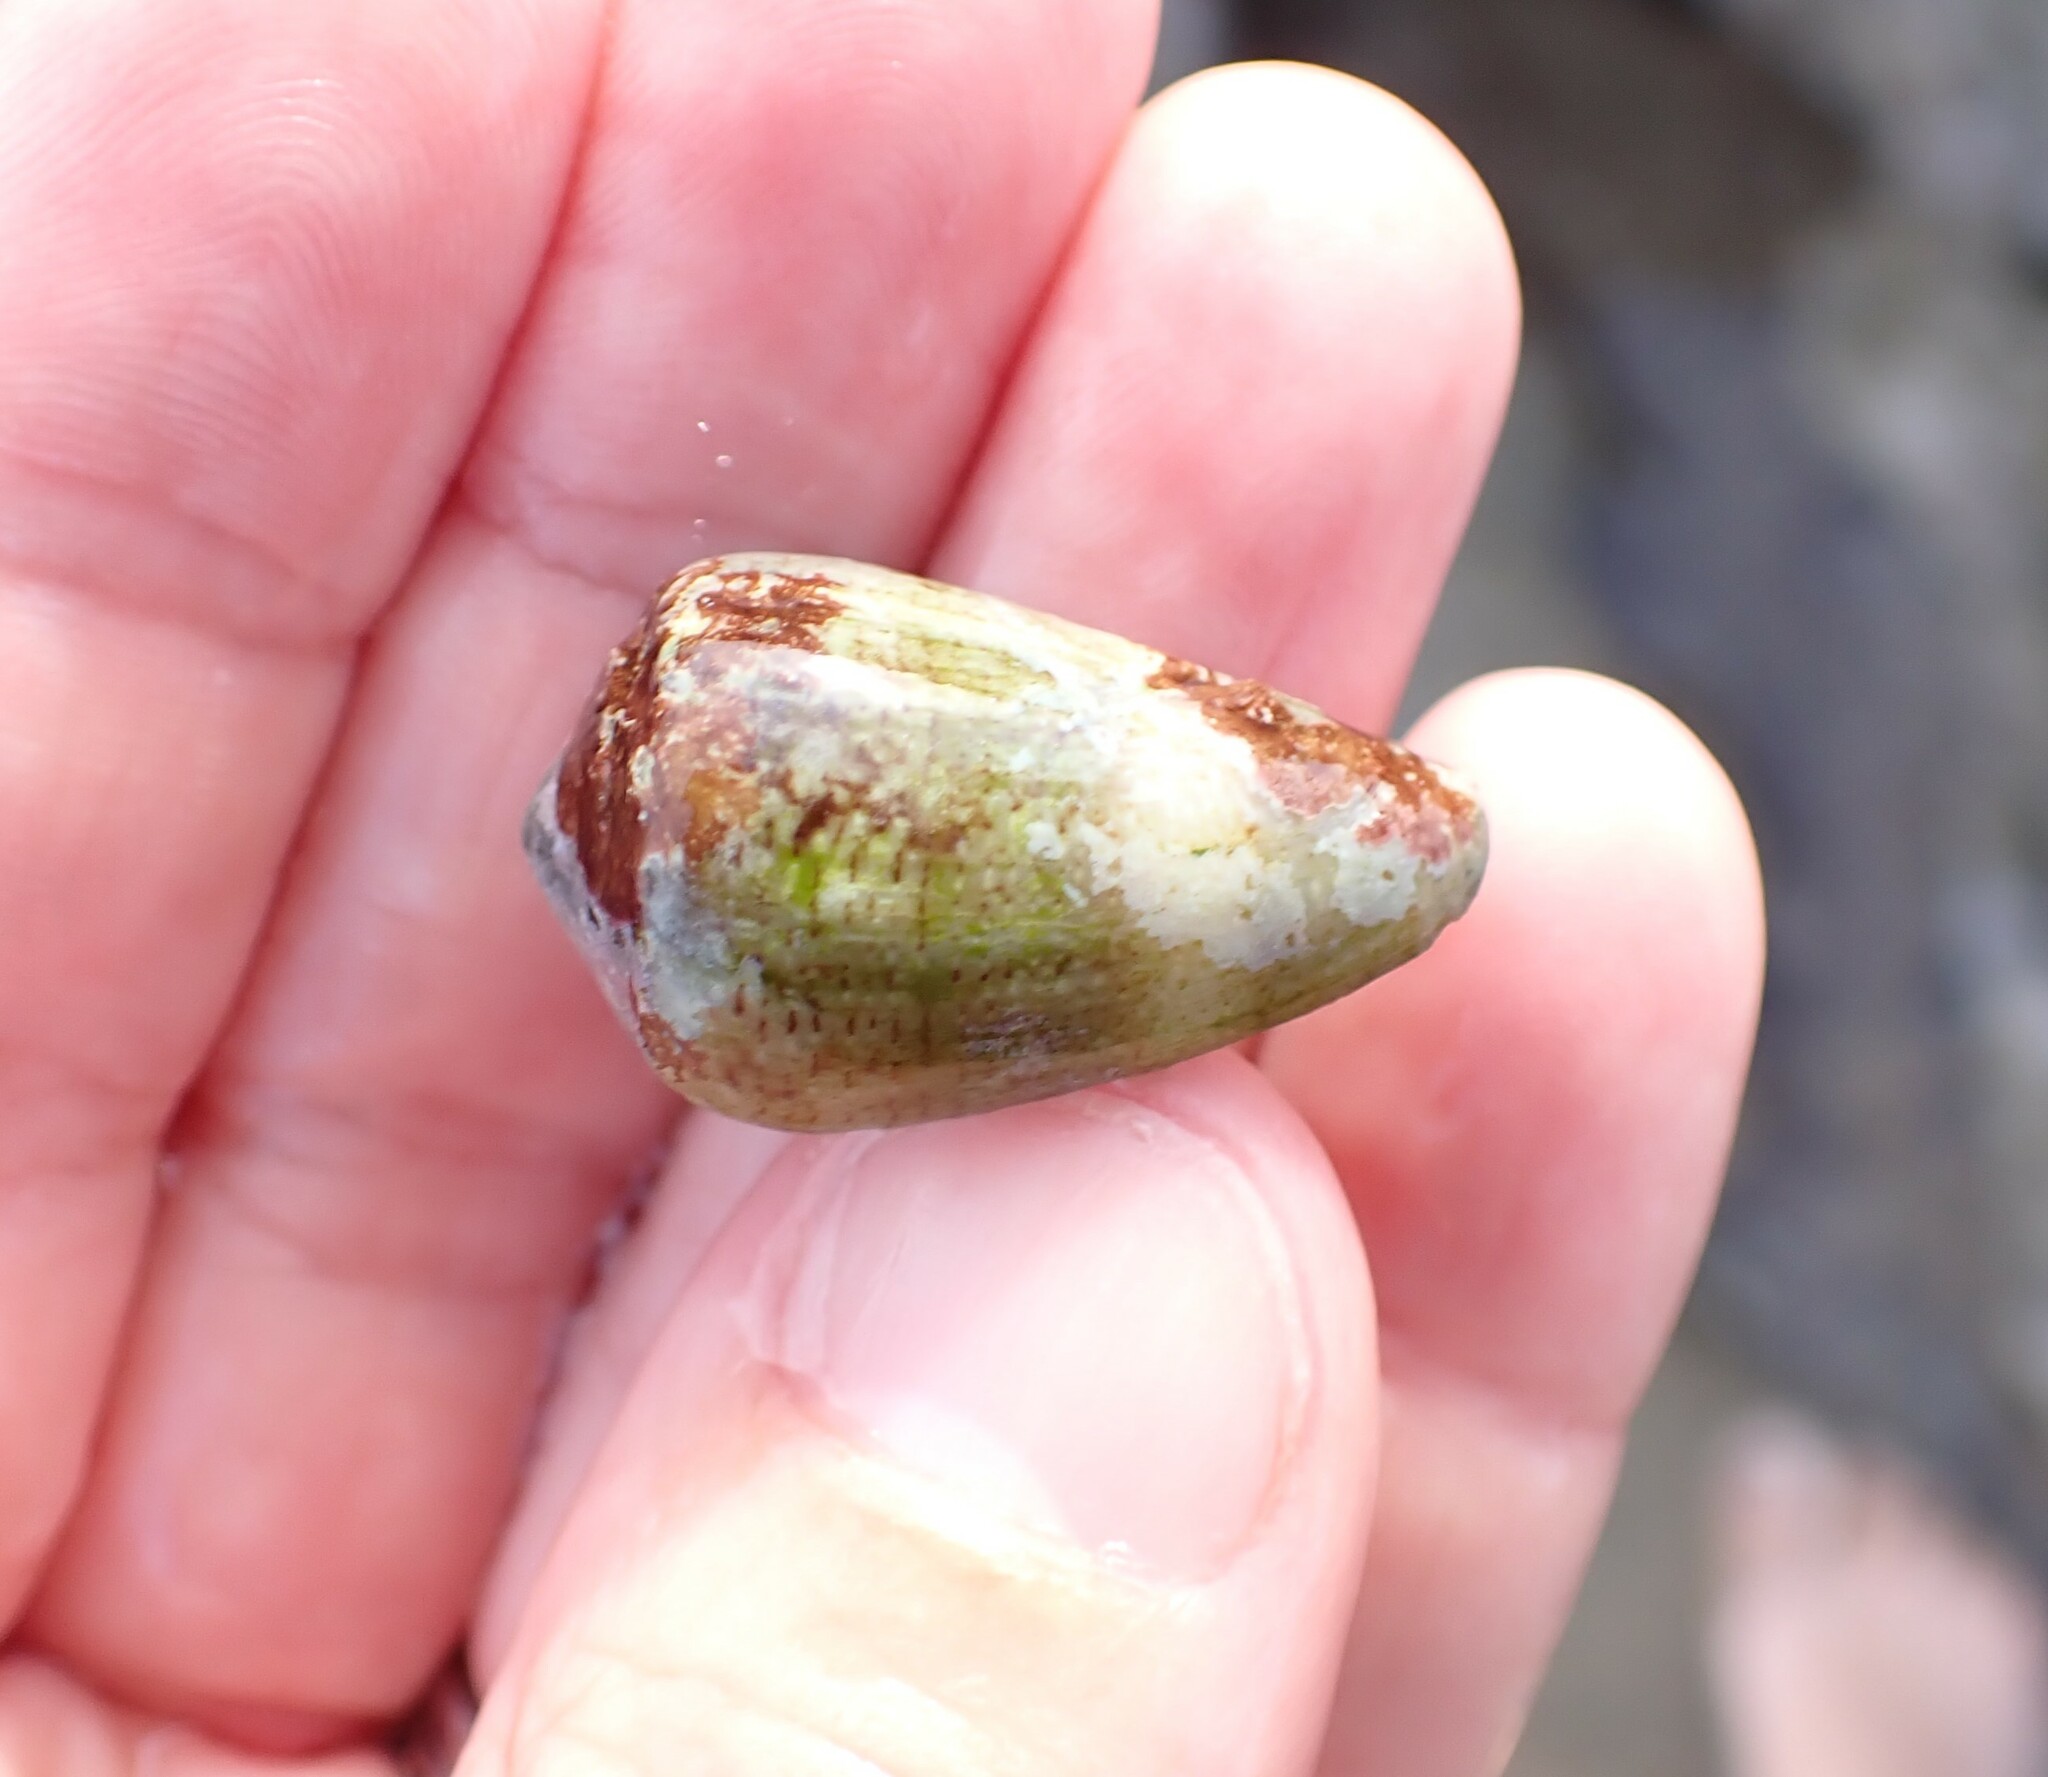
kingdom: Animalia
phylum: Mollusca
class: Gastropoda
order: Neogastropoda
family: Conidae
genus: Conus
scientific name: Conus ventricosus
